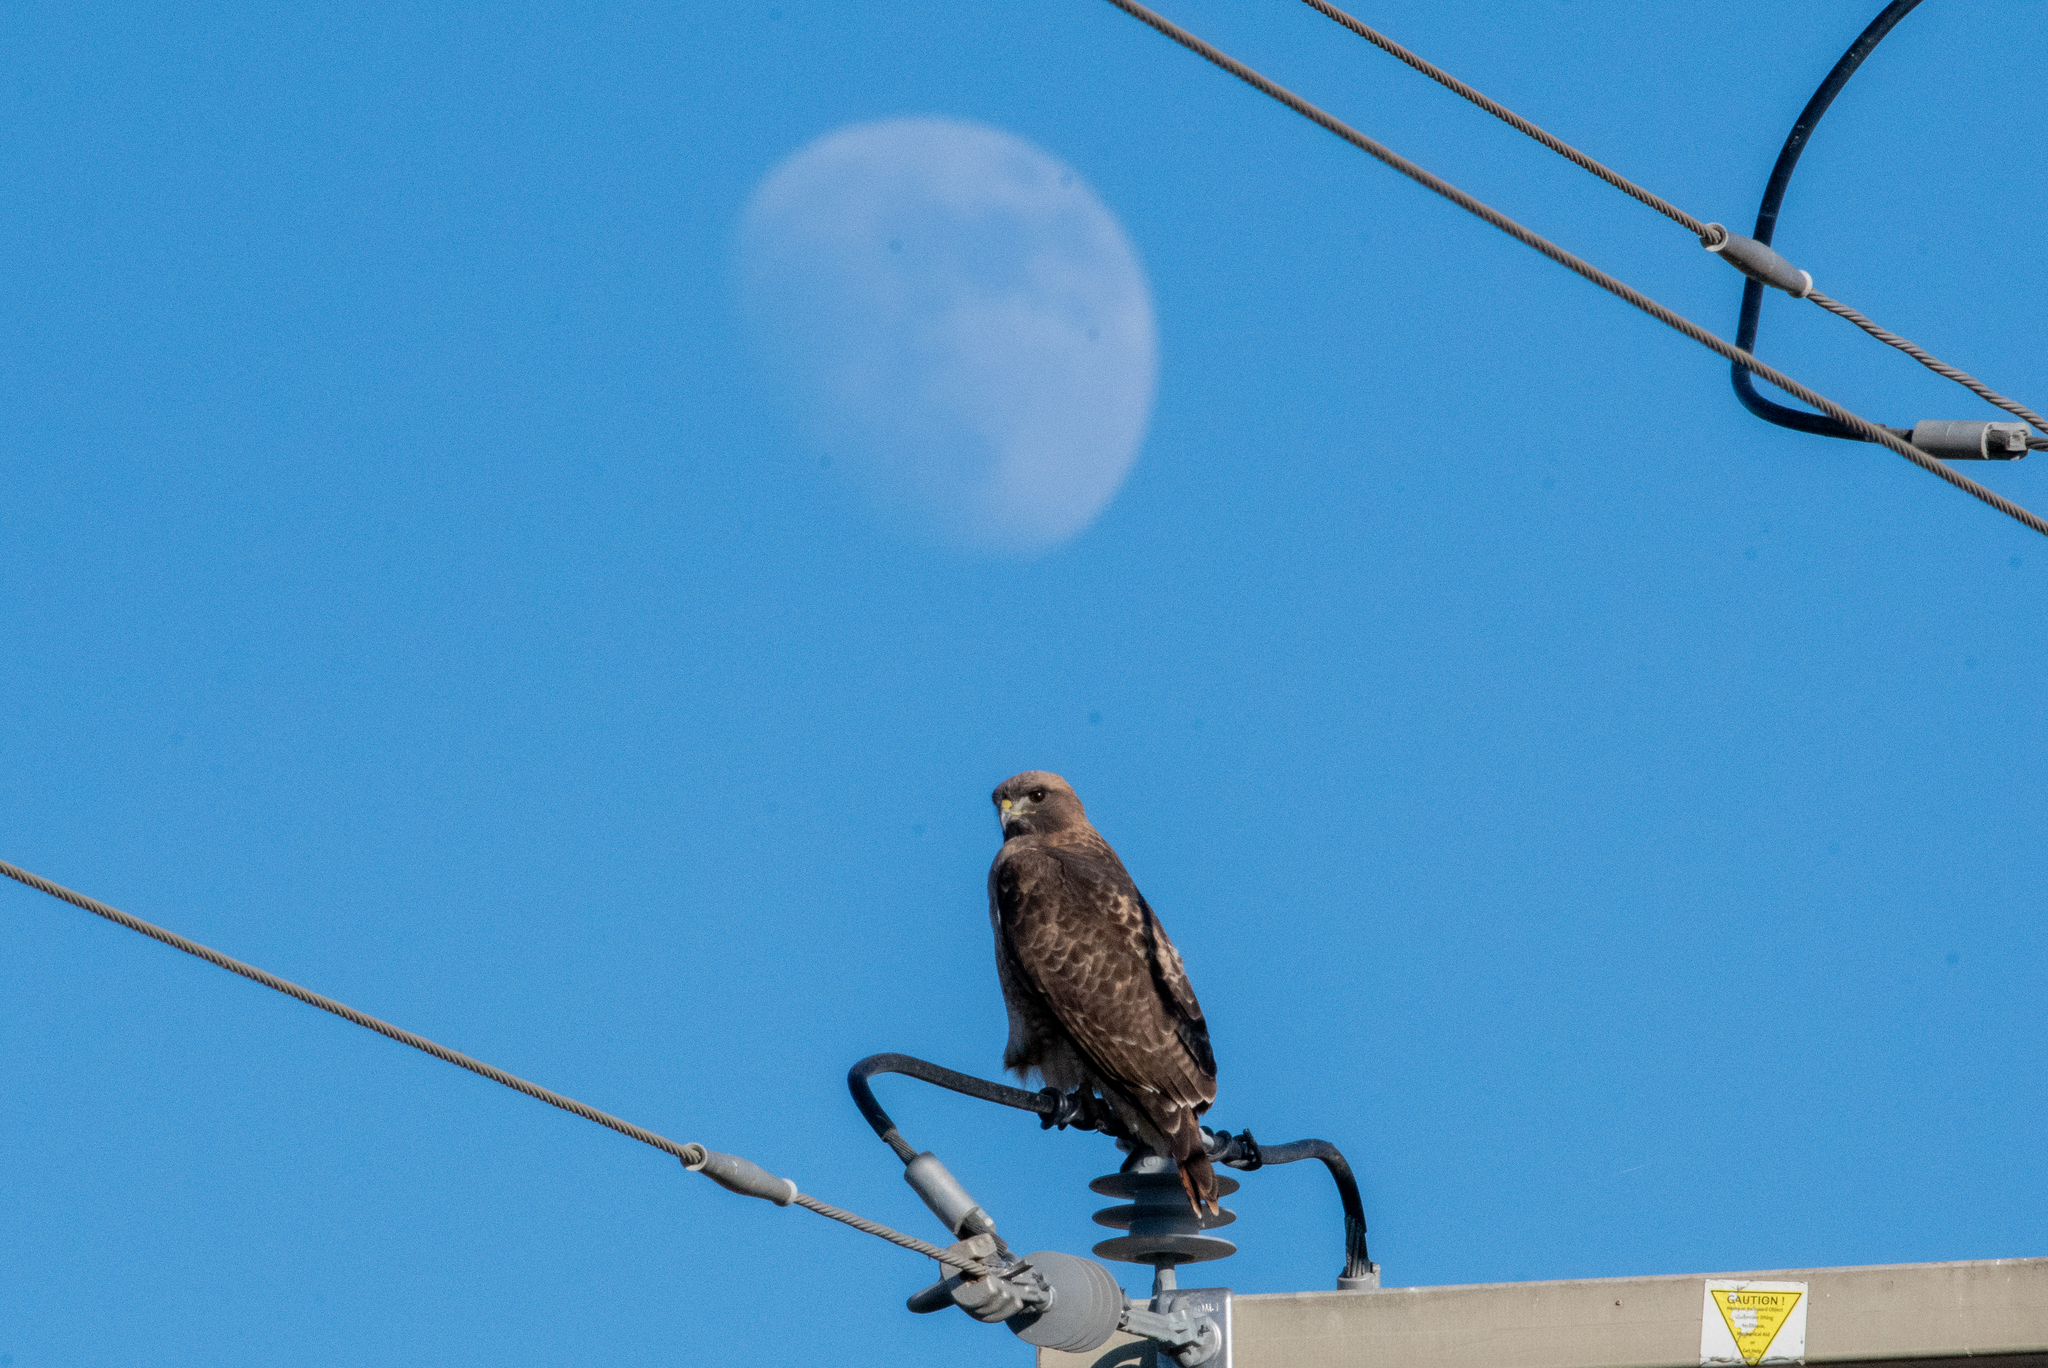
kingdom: Animalia
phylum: Chordata
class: Aves
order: Accipitriformes
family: Accipitridae
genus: Buteo
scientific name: Buteo jamaicensis
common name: Red-tailed hawk
